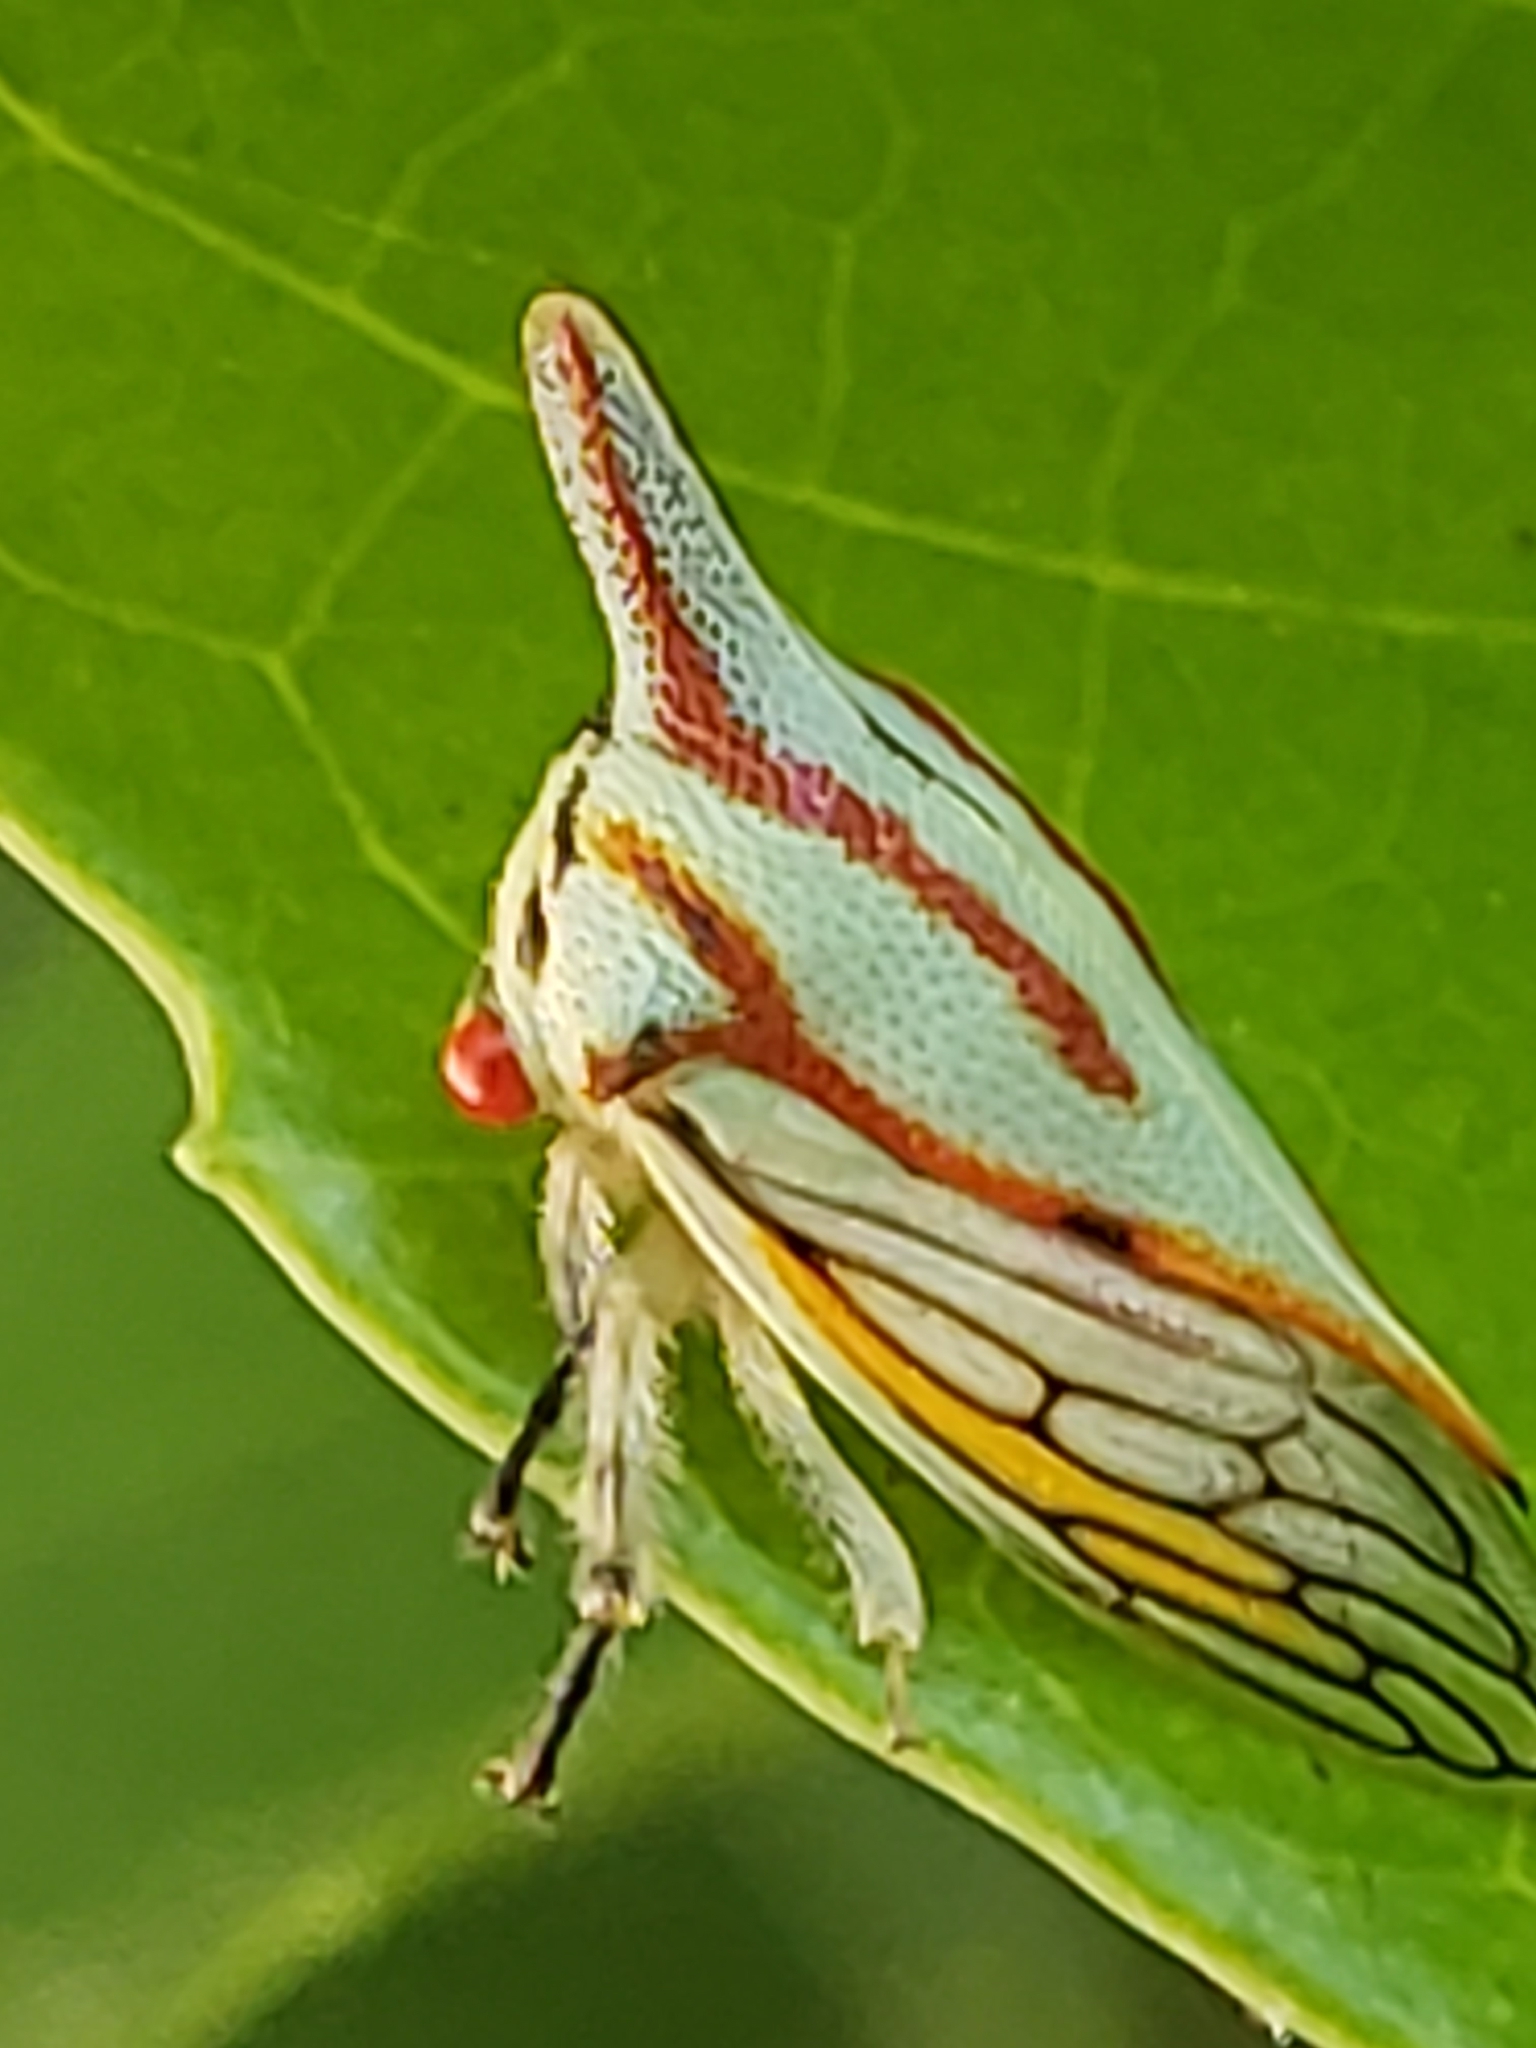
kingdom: Animalia
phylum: Arthropoda
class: Insecta
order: Hemiptera
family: Membracidae
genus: Platycotis
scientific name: Platycotis vittatus
